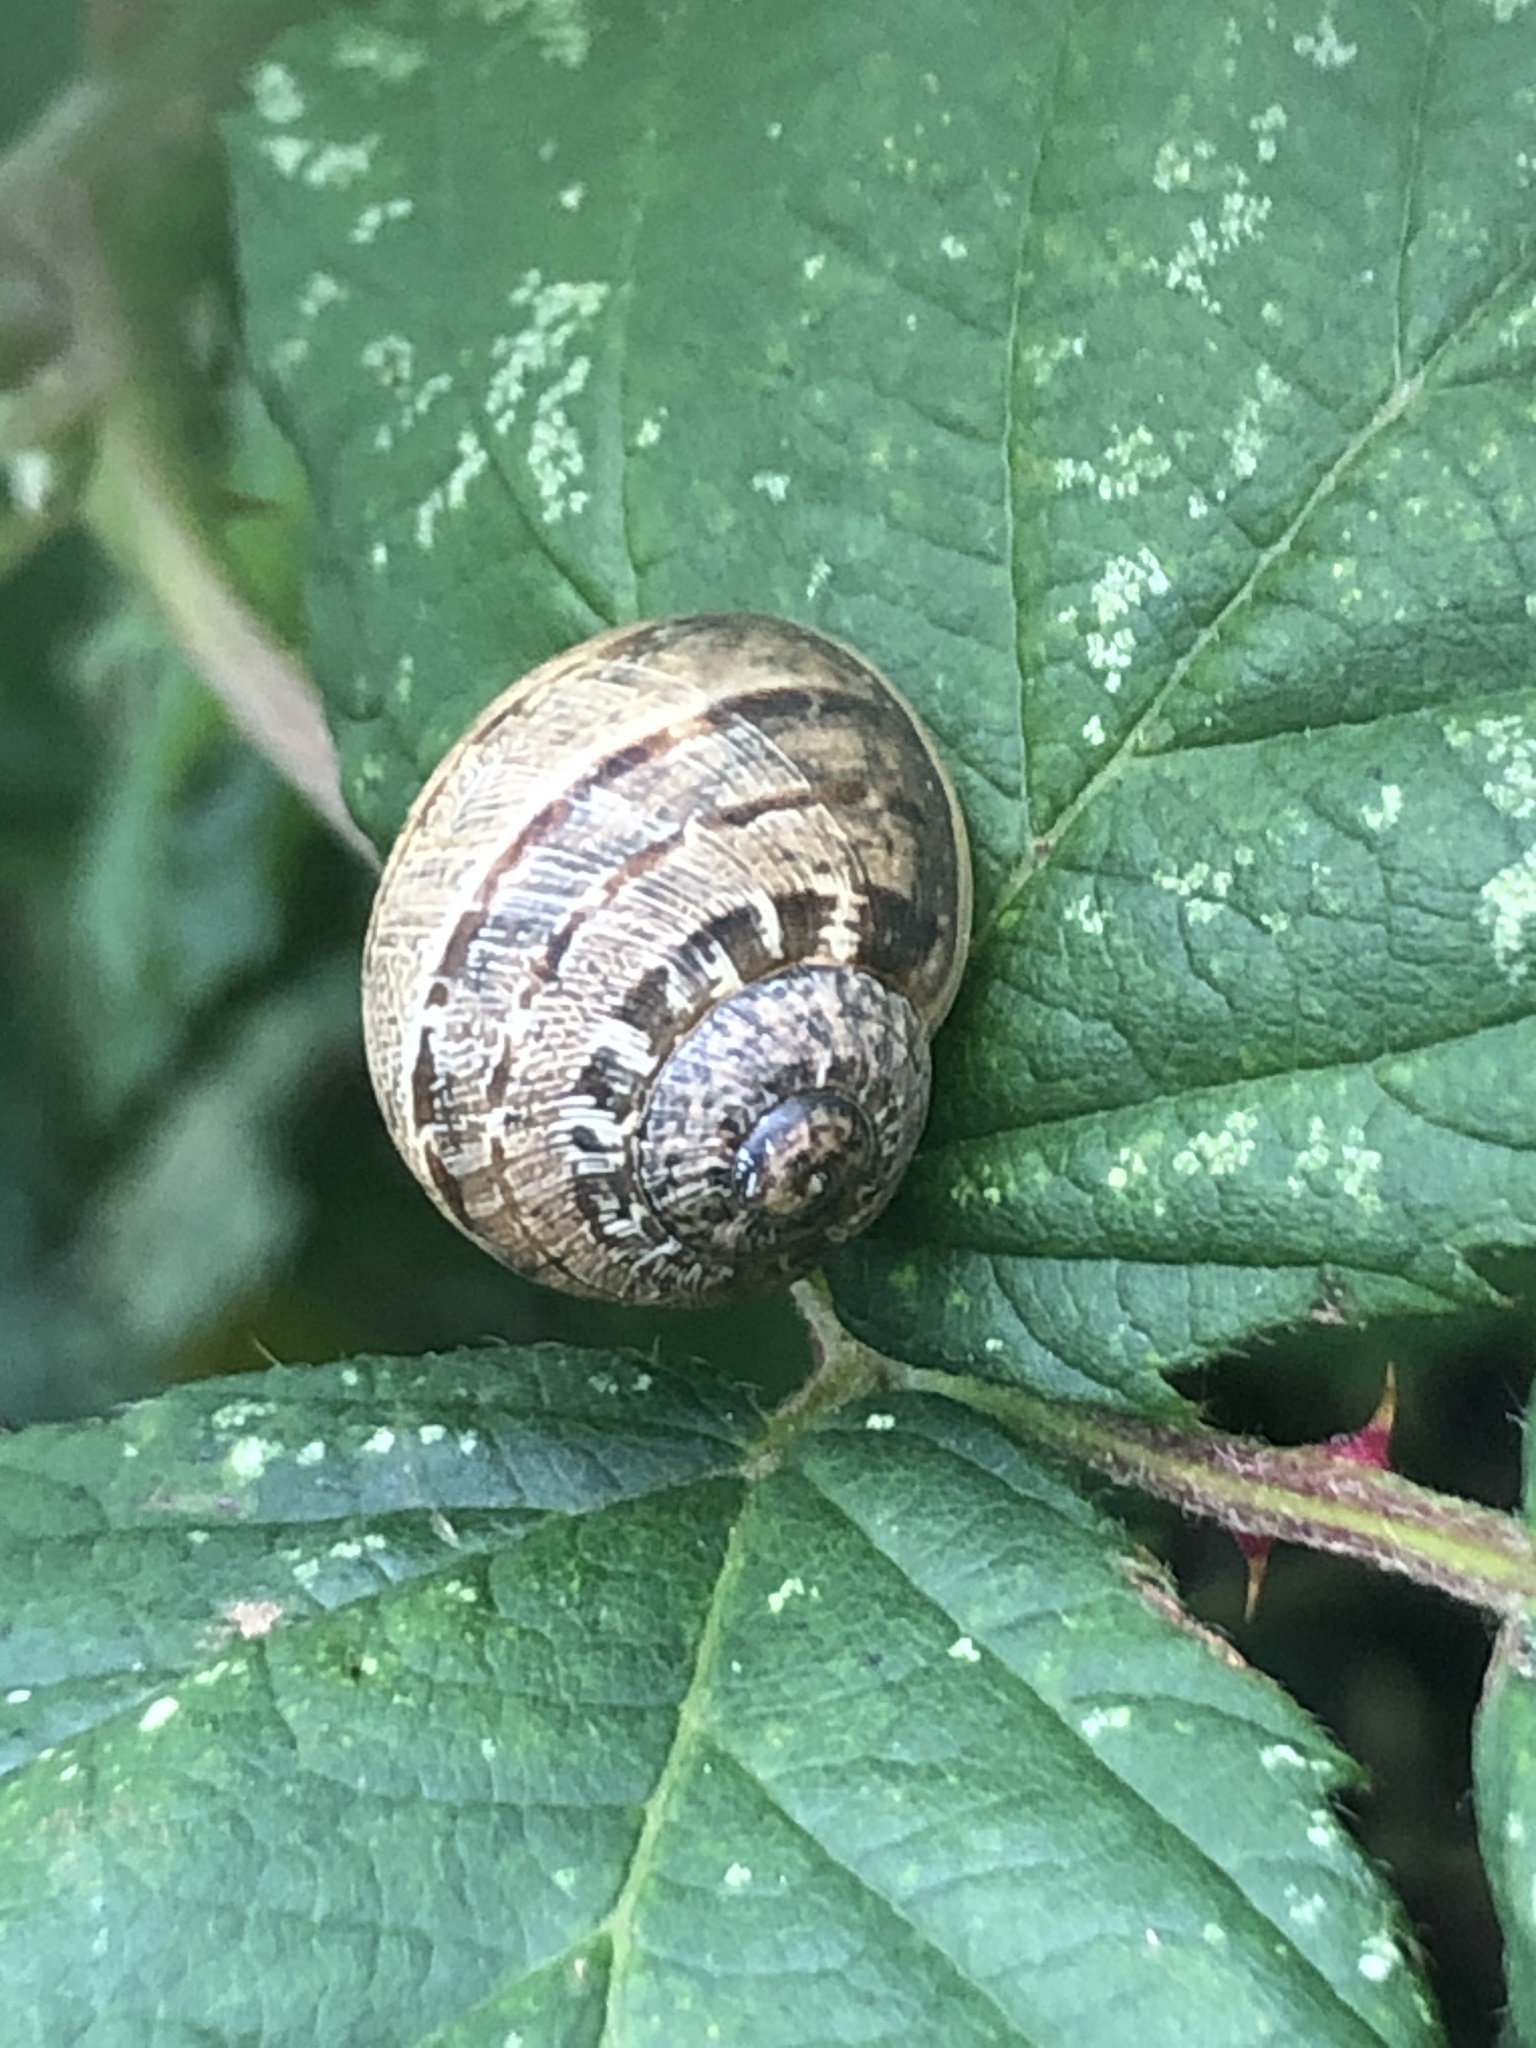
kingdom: Animalia
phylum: Mollusca
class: Gastropoda
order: Stylommatophora
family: Helicidae
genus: Cornu
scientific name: Cornu aspersum
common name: Brown garden snail
